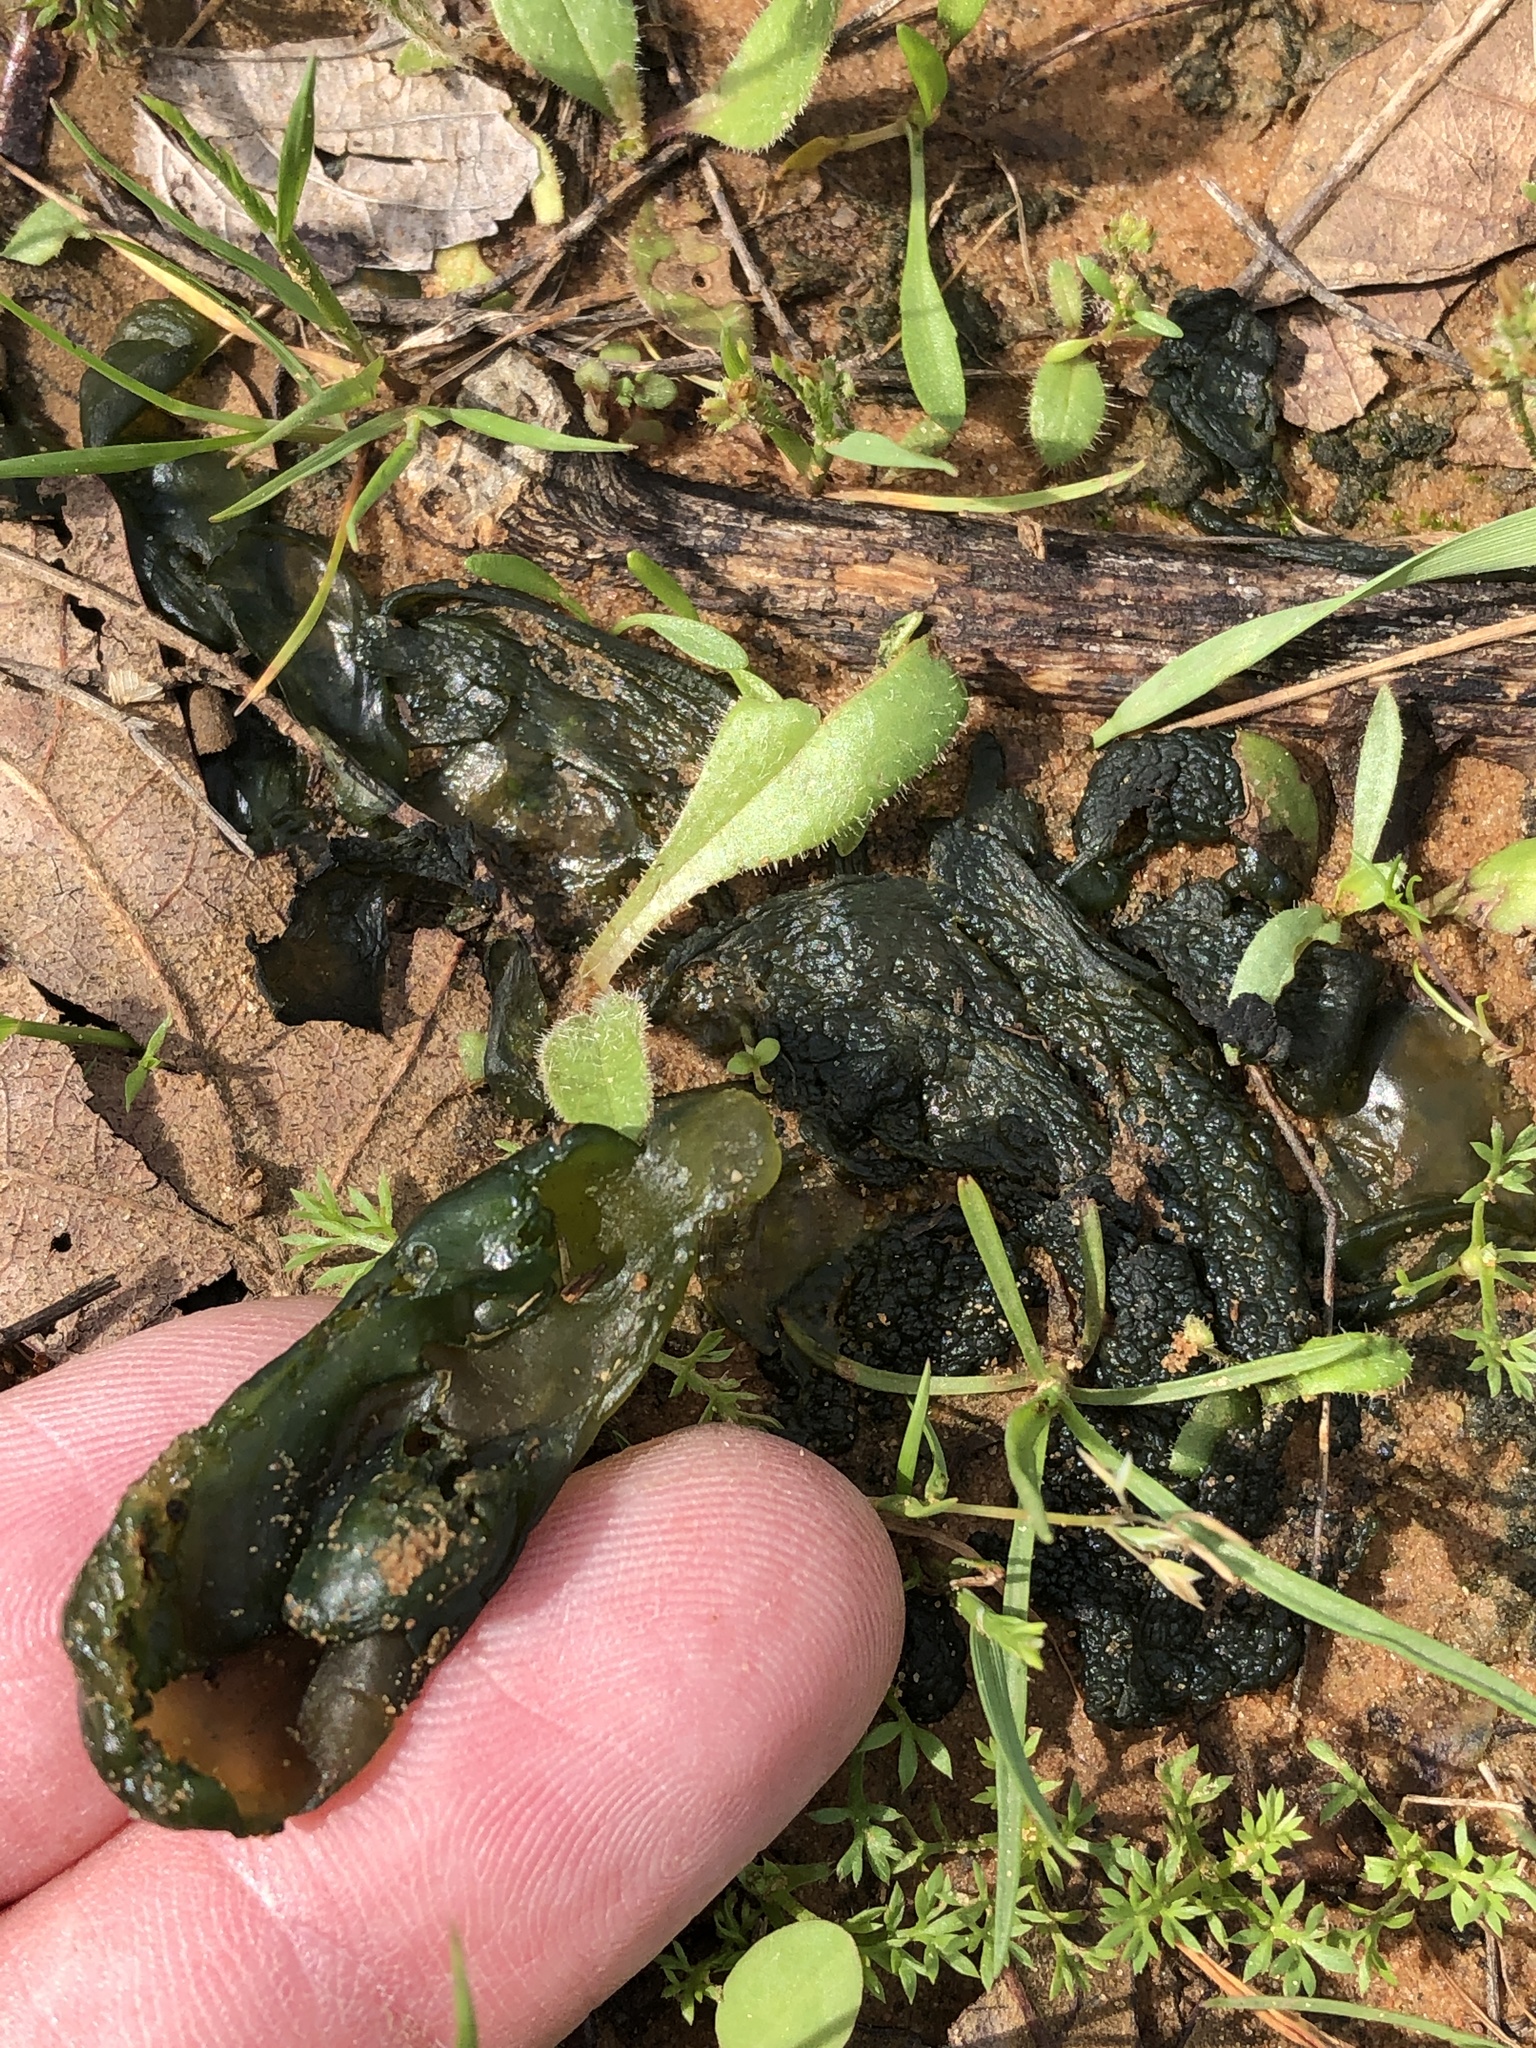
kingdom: Bacteria
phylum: Cyanobacteria
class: Cyanobacteriia
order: Cyanobacteriales
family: Nostocaceae
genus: Nostoc
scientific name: Nostoc commune
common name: Star jelly
